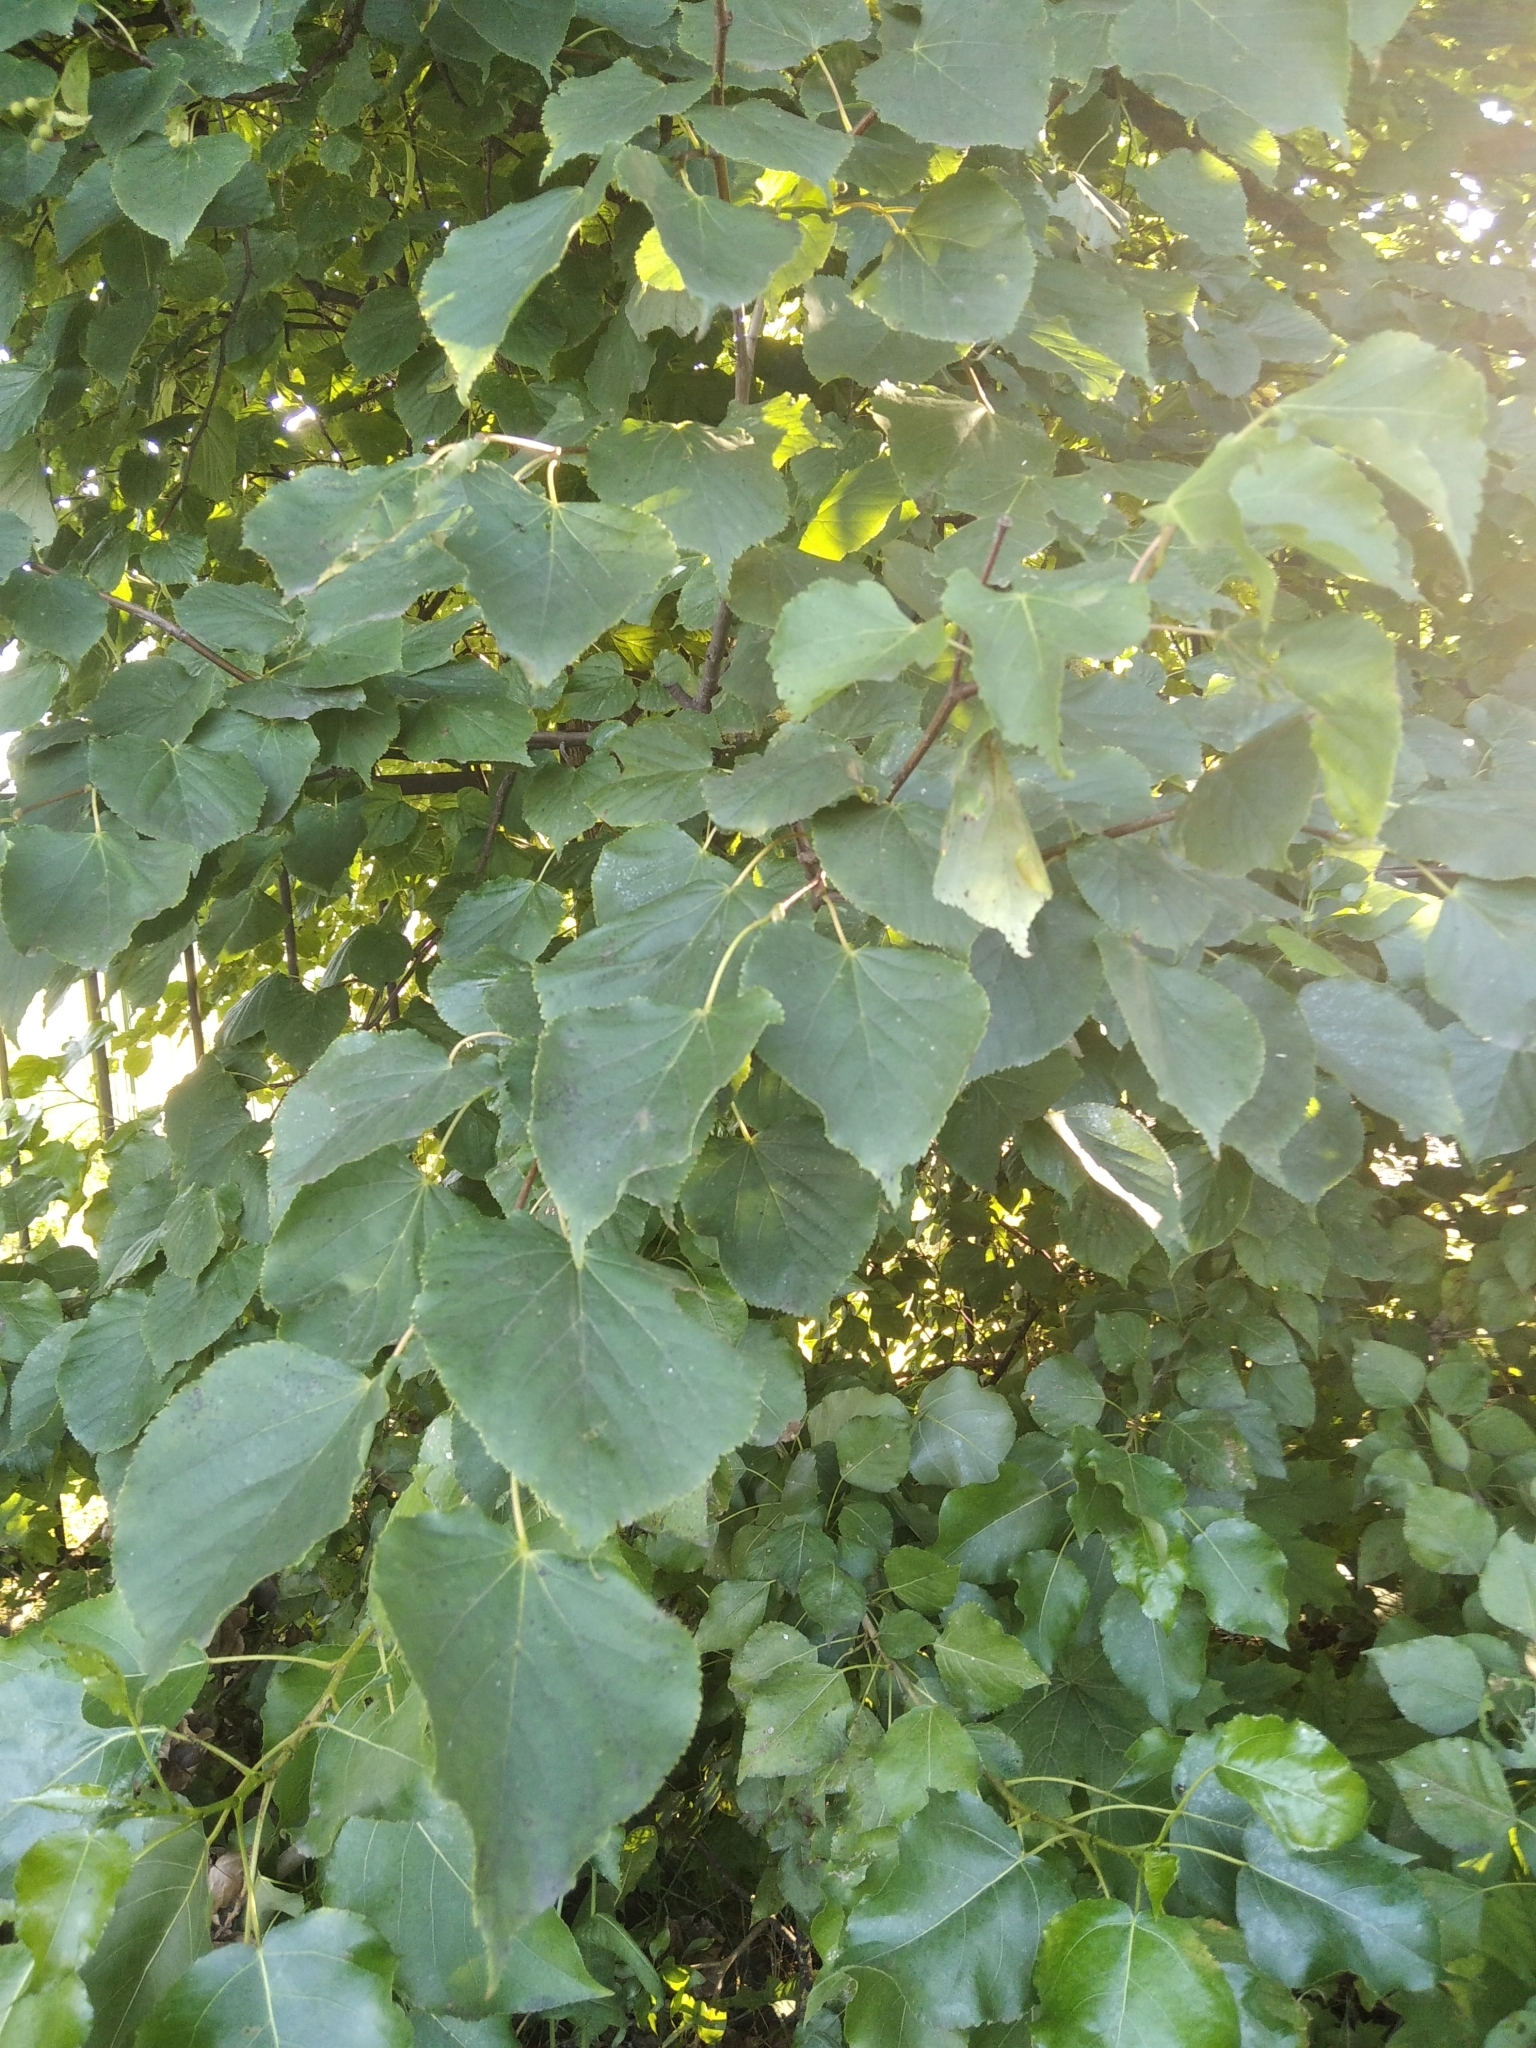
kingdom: Plantae
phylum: Tracheophyta
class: Magnoliopsida
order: Malvales
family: Malvaceae
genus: Tilia
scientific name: Tilia cordata
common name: Small-leaved lime
